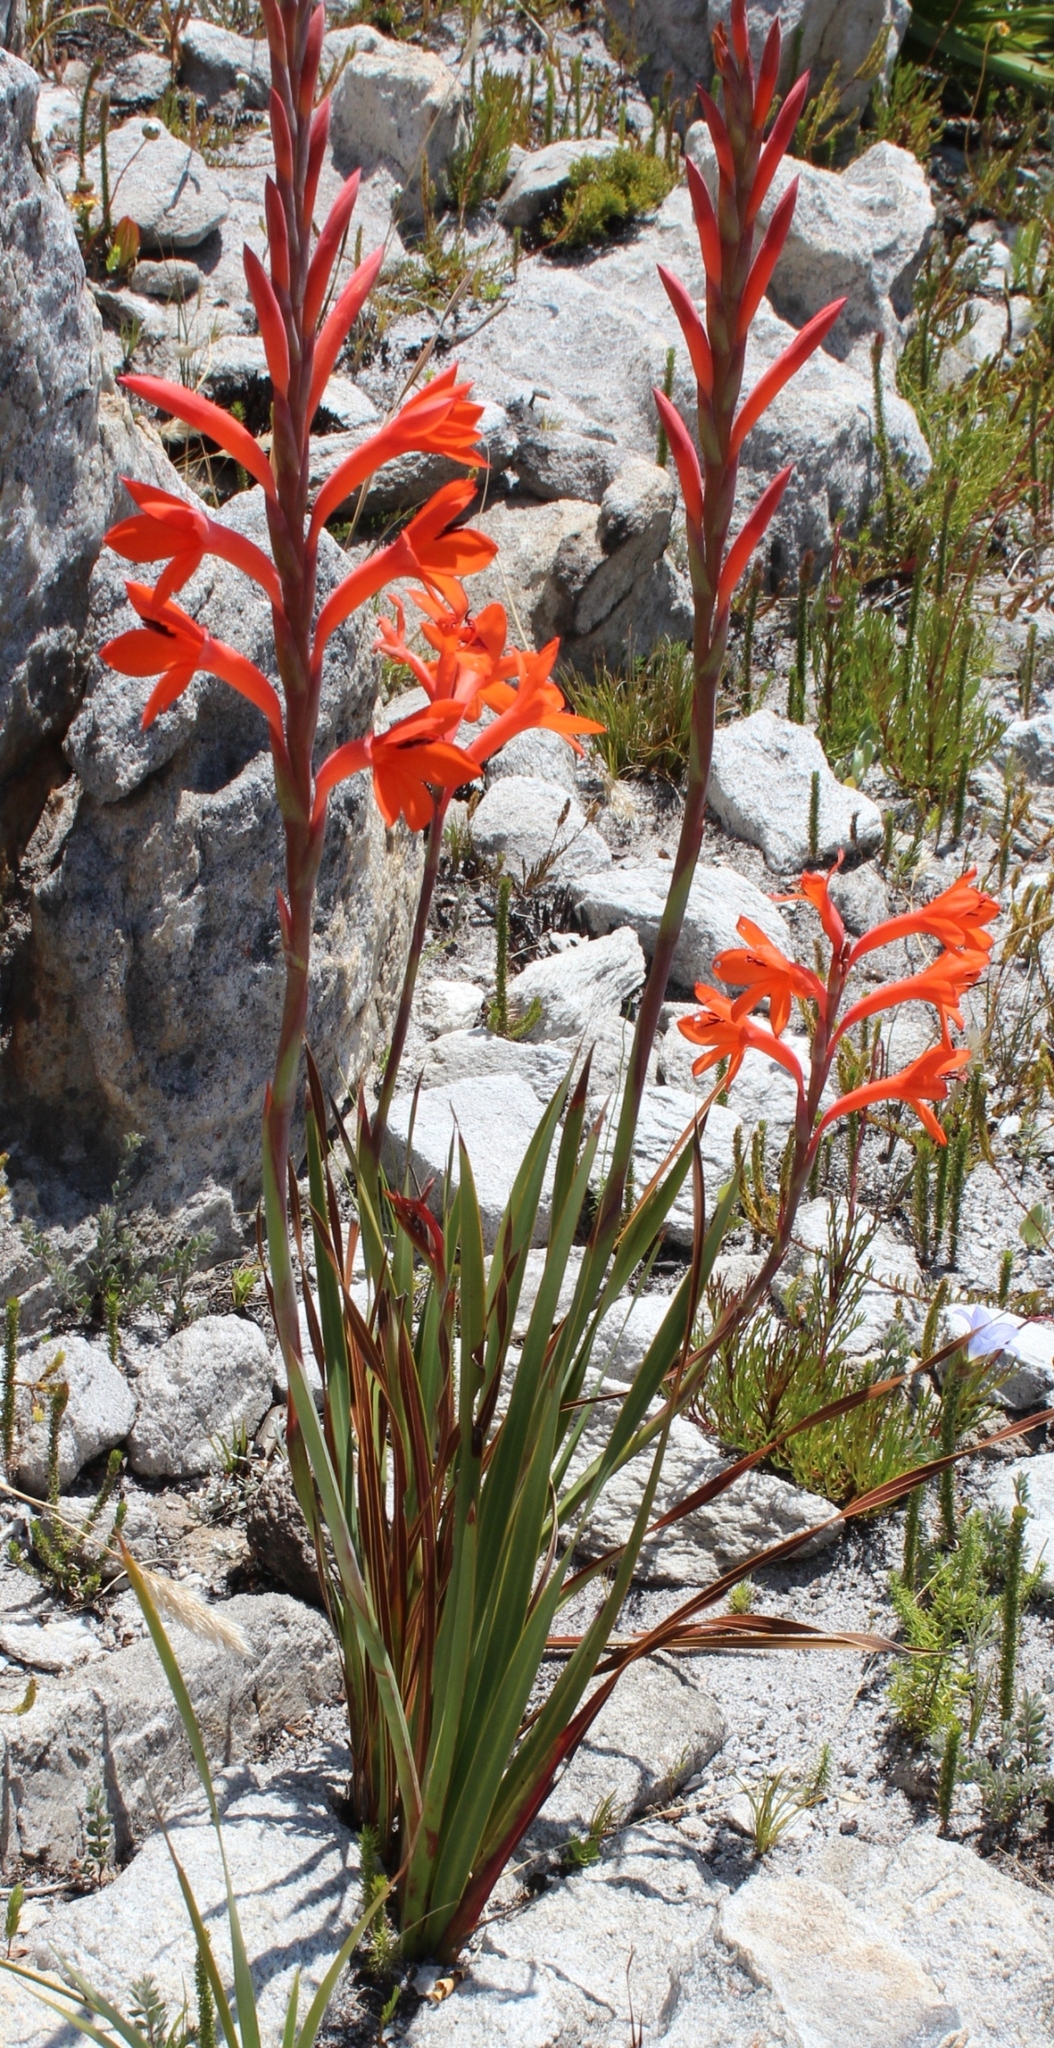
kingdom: Plantae
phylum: Tracheophyta
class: Liliopsida
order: Asparagales
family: Iridaceae
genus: Watsonia
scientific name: Watsonia schlechteri
